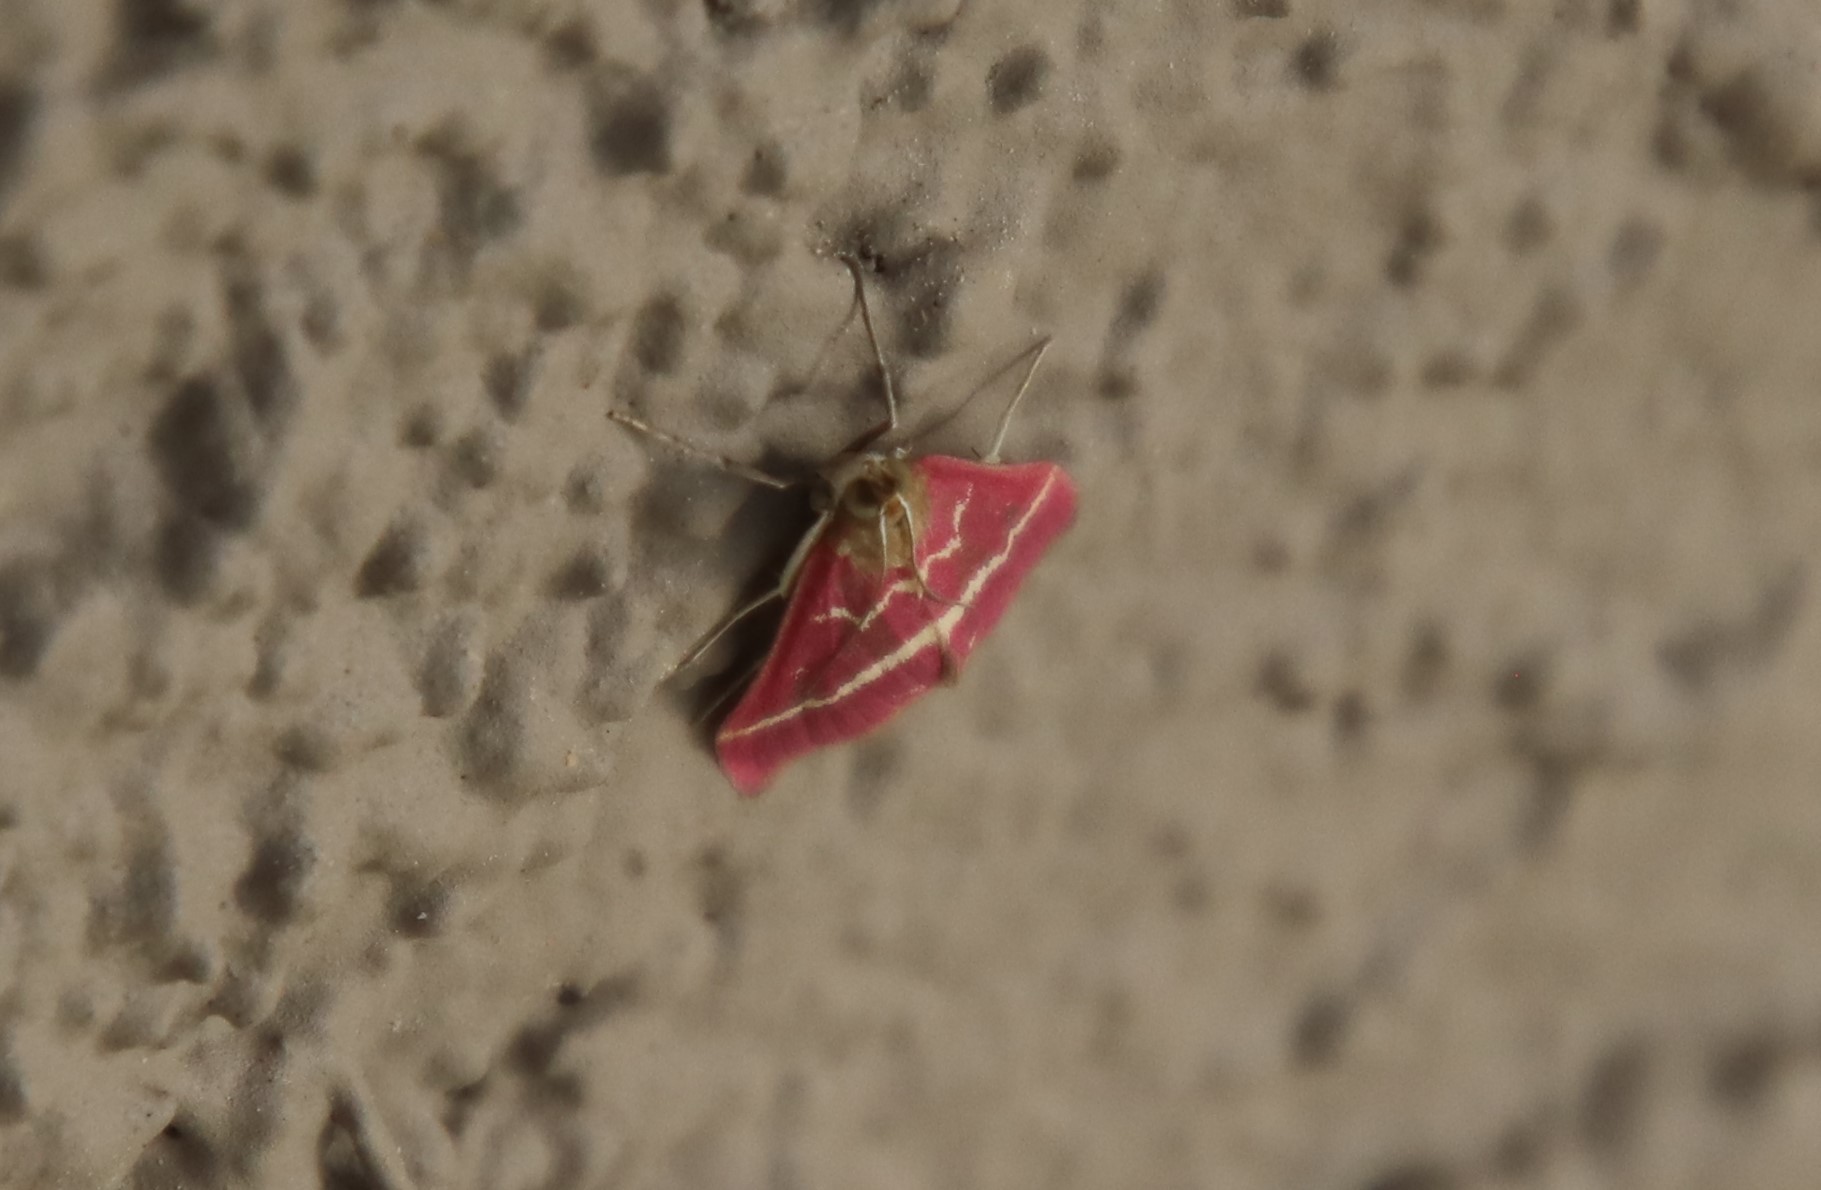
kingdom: Animalia
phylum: Arthropoda
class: Insecta
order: Lepidoptera
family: Crambidae
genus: Pyrausta
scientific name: Pyrausta volupialis
